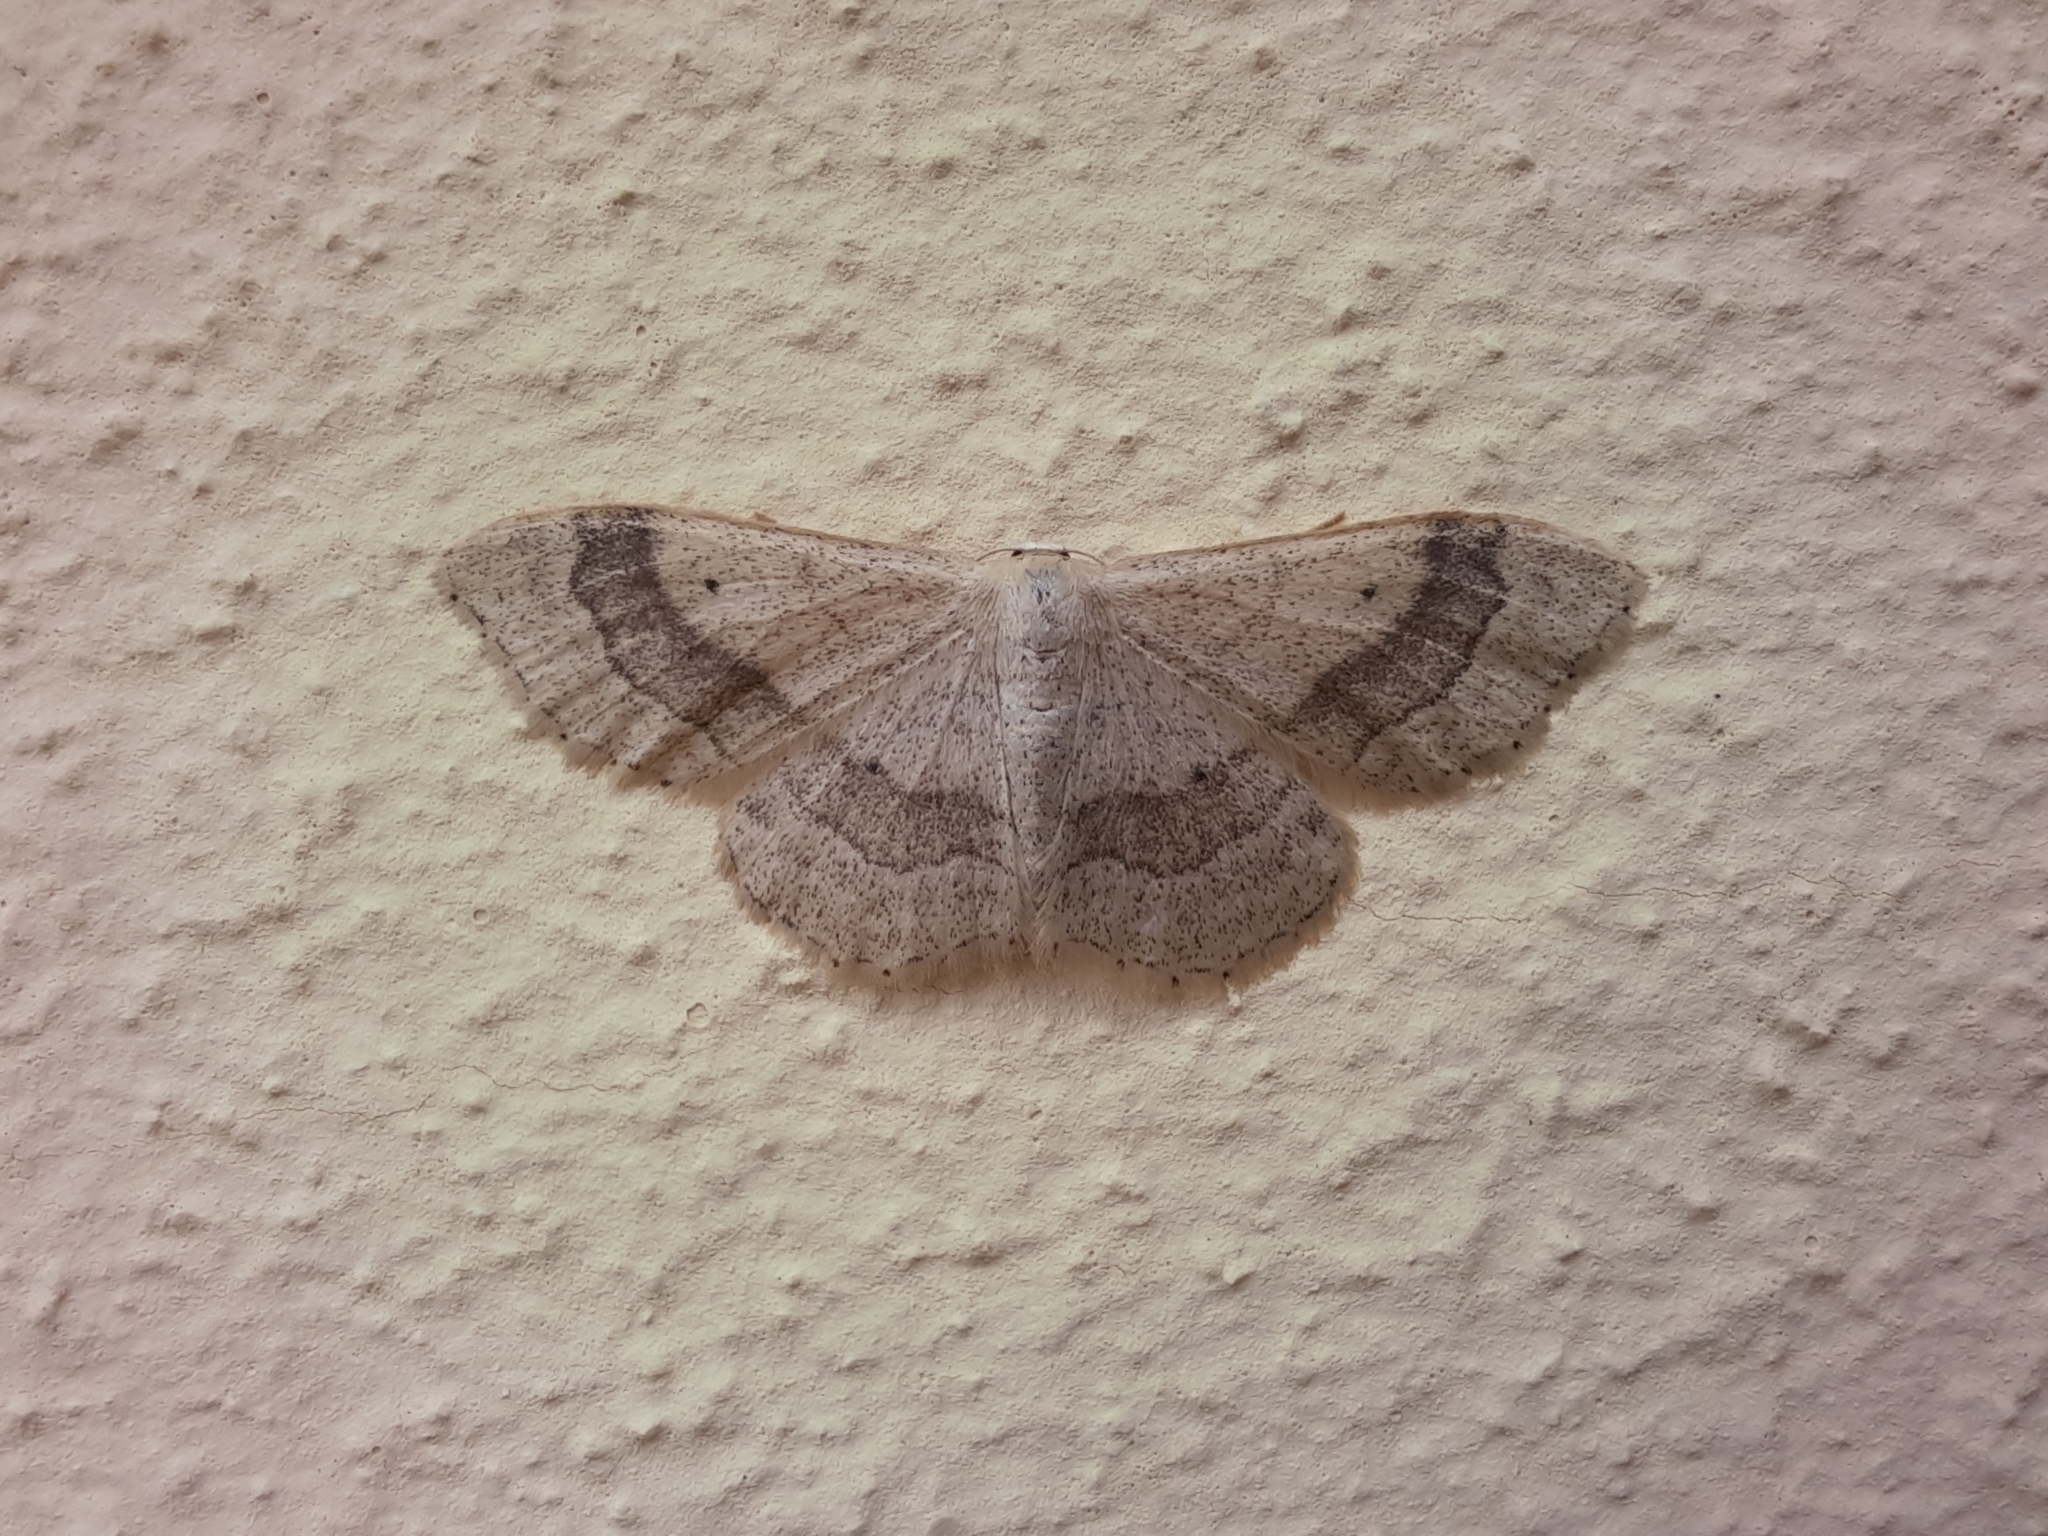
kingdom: Animalia
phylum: Arthropoda
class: Insecta
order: Lepidoptera
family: Geometridae
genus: Idaea
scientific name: Idaea aversata
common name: Riband wave
